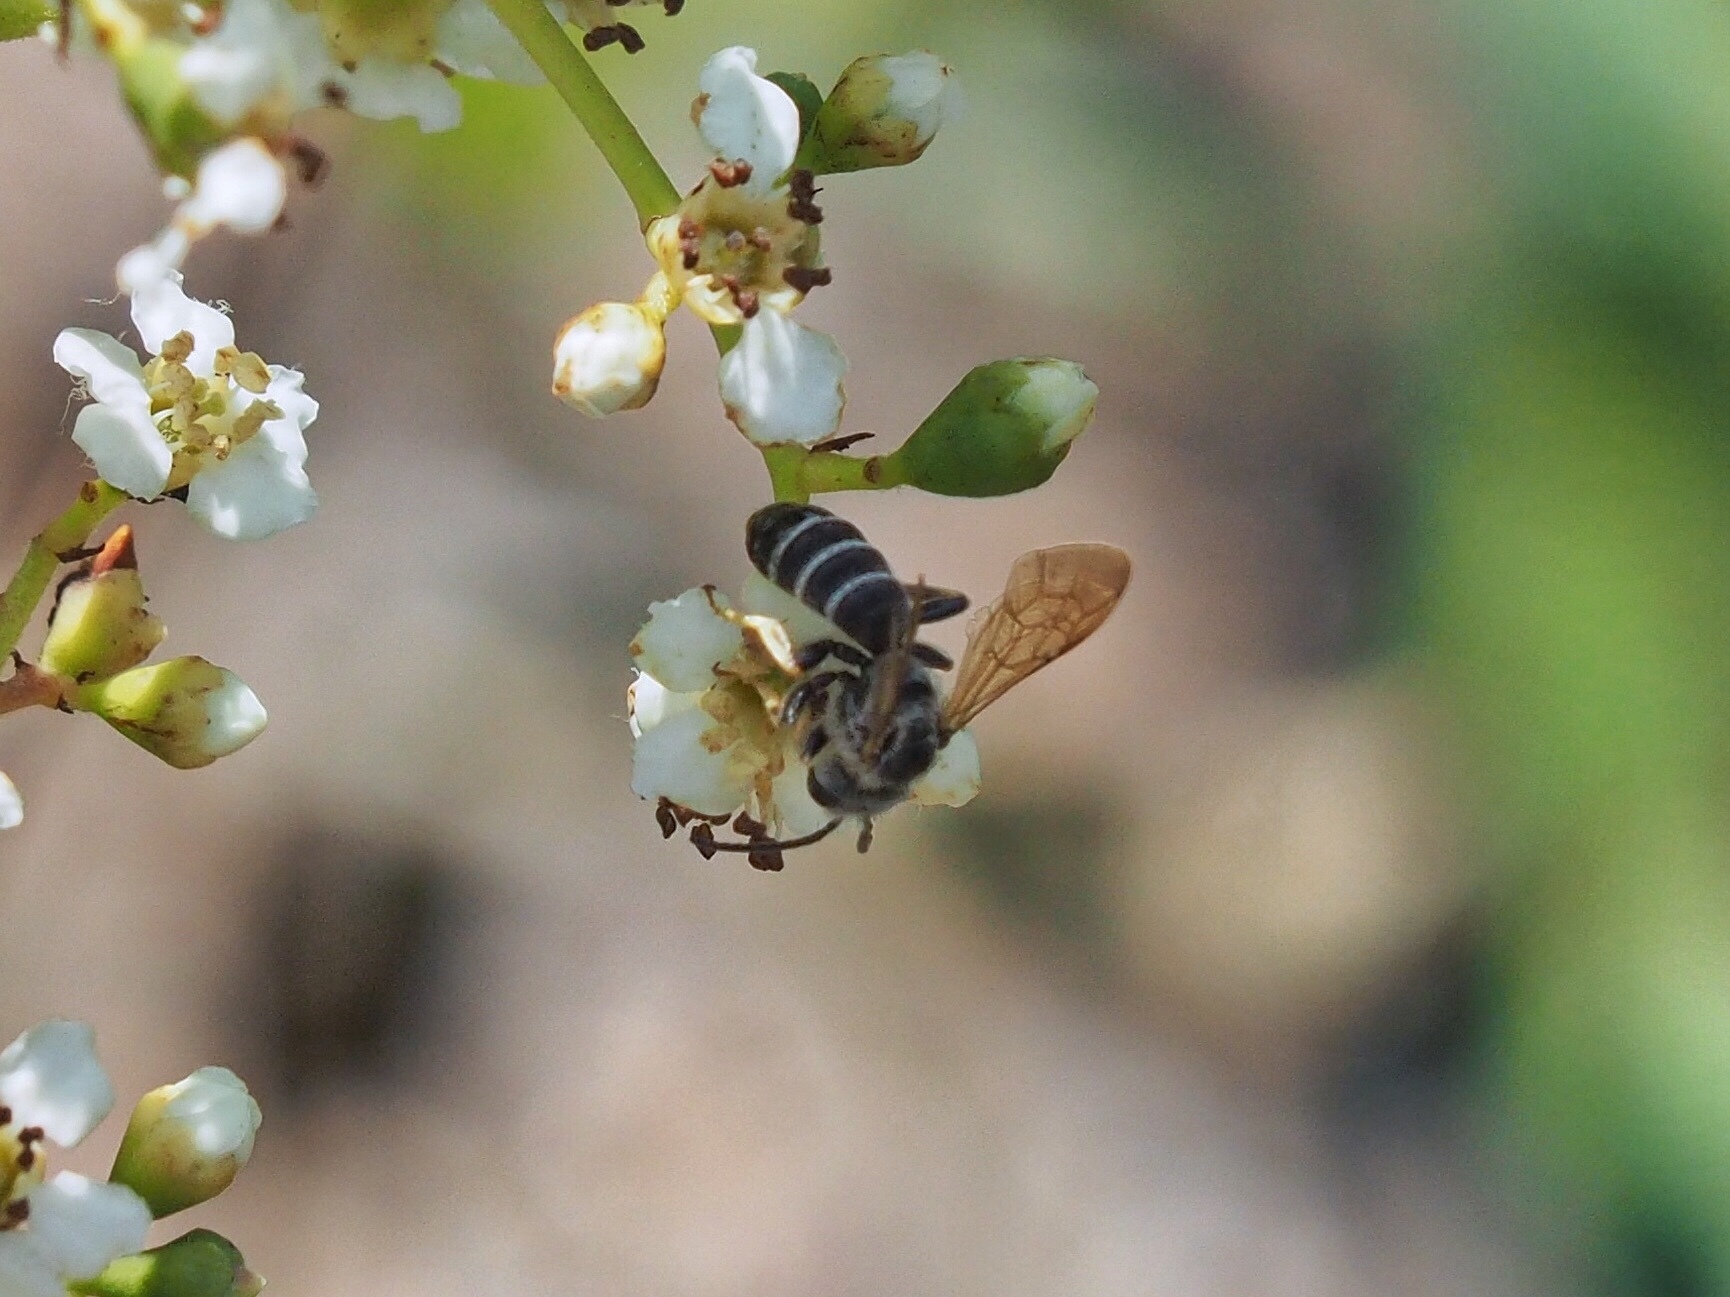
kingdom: Animalia
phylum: Arthropoda
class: Insecta
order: Hymenoptera
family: Halictidae
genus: Halictus
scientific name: Halictus farinosus
